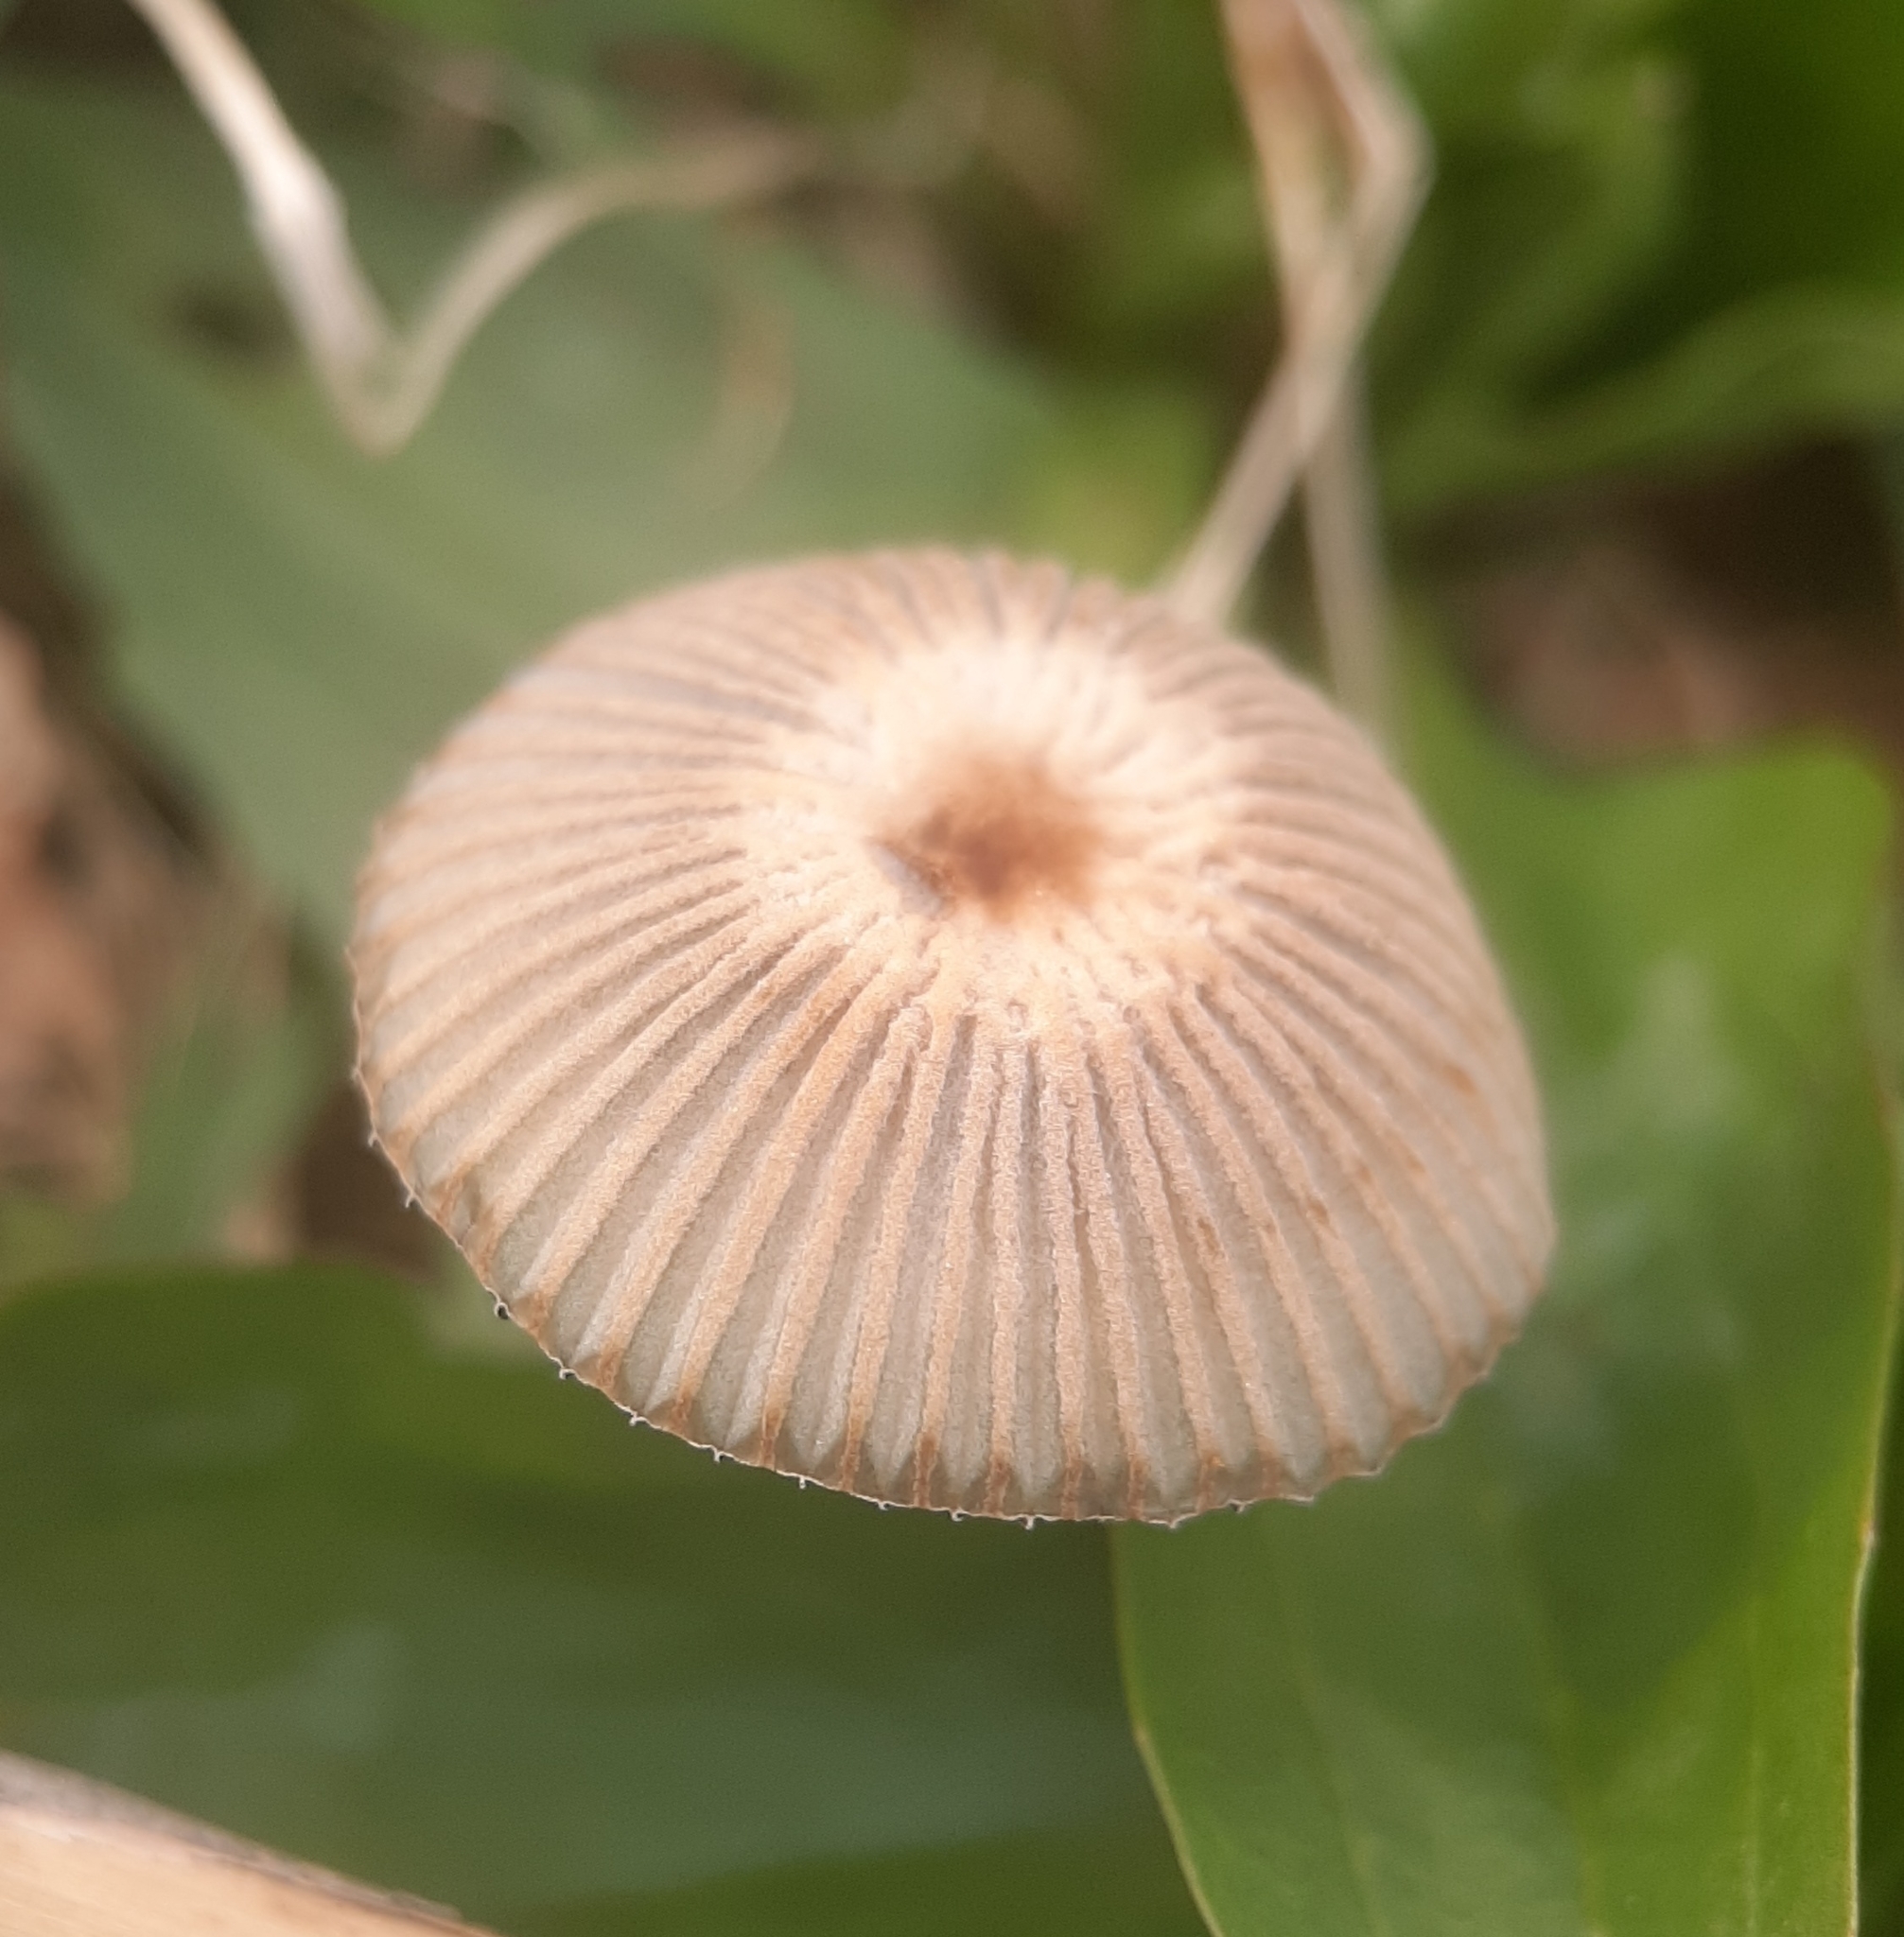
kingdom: Fungi
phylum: Basidiomycota
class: Agaricomycetes
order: Agaricales
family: Psathyrellaceae
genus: Parasola
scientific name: Parasola plicatilis
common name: Pleated inkcap
